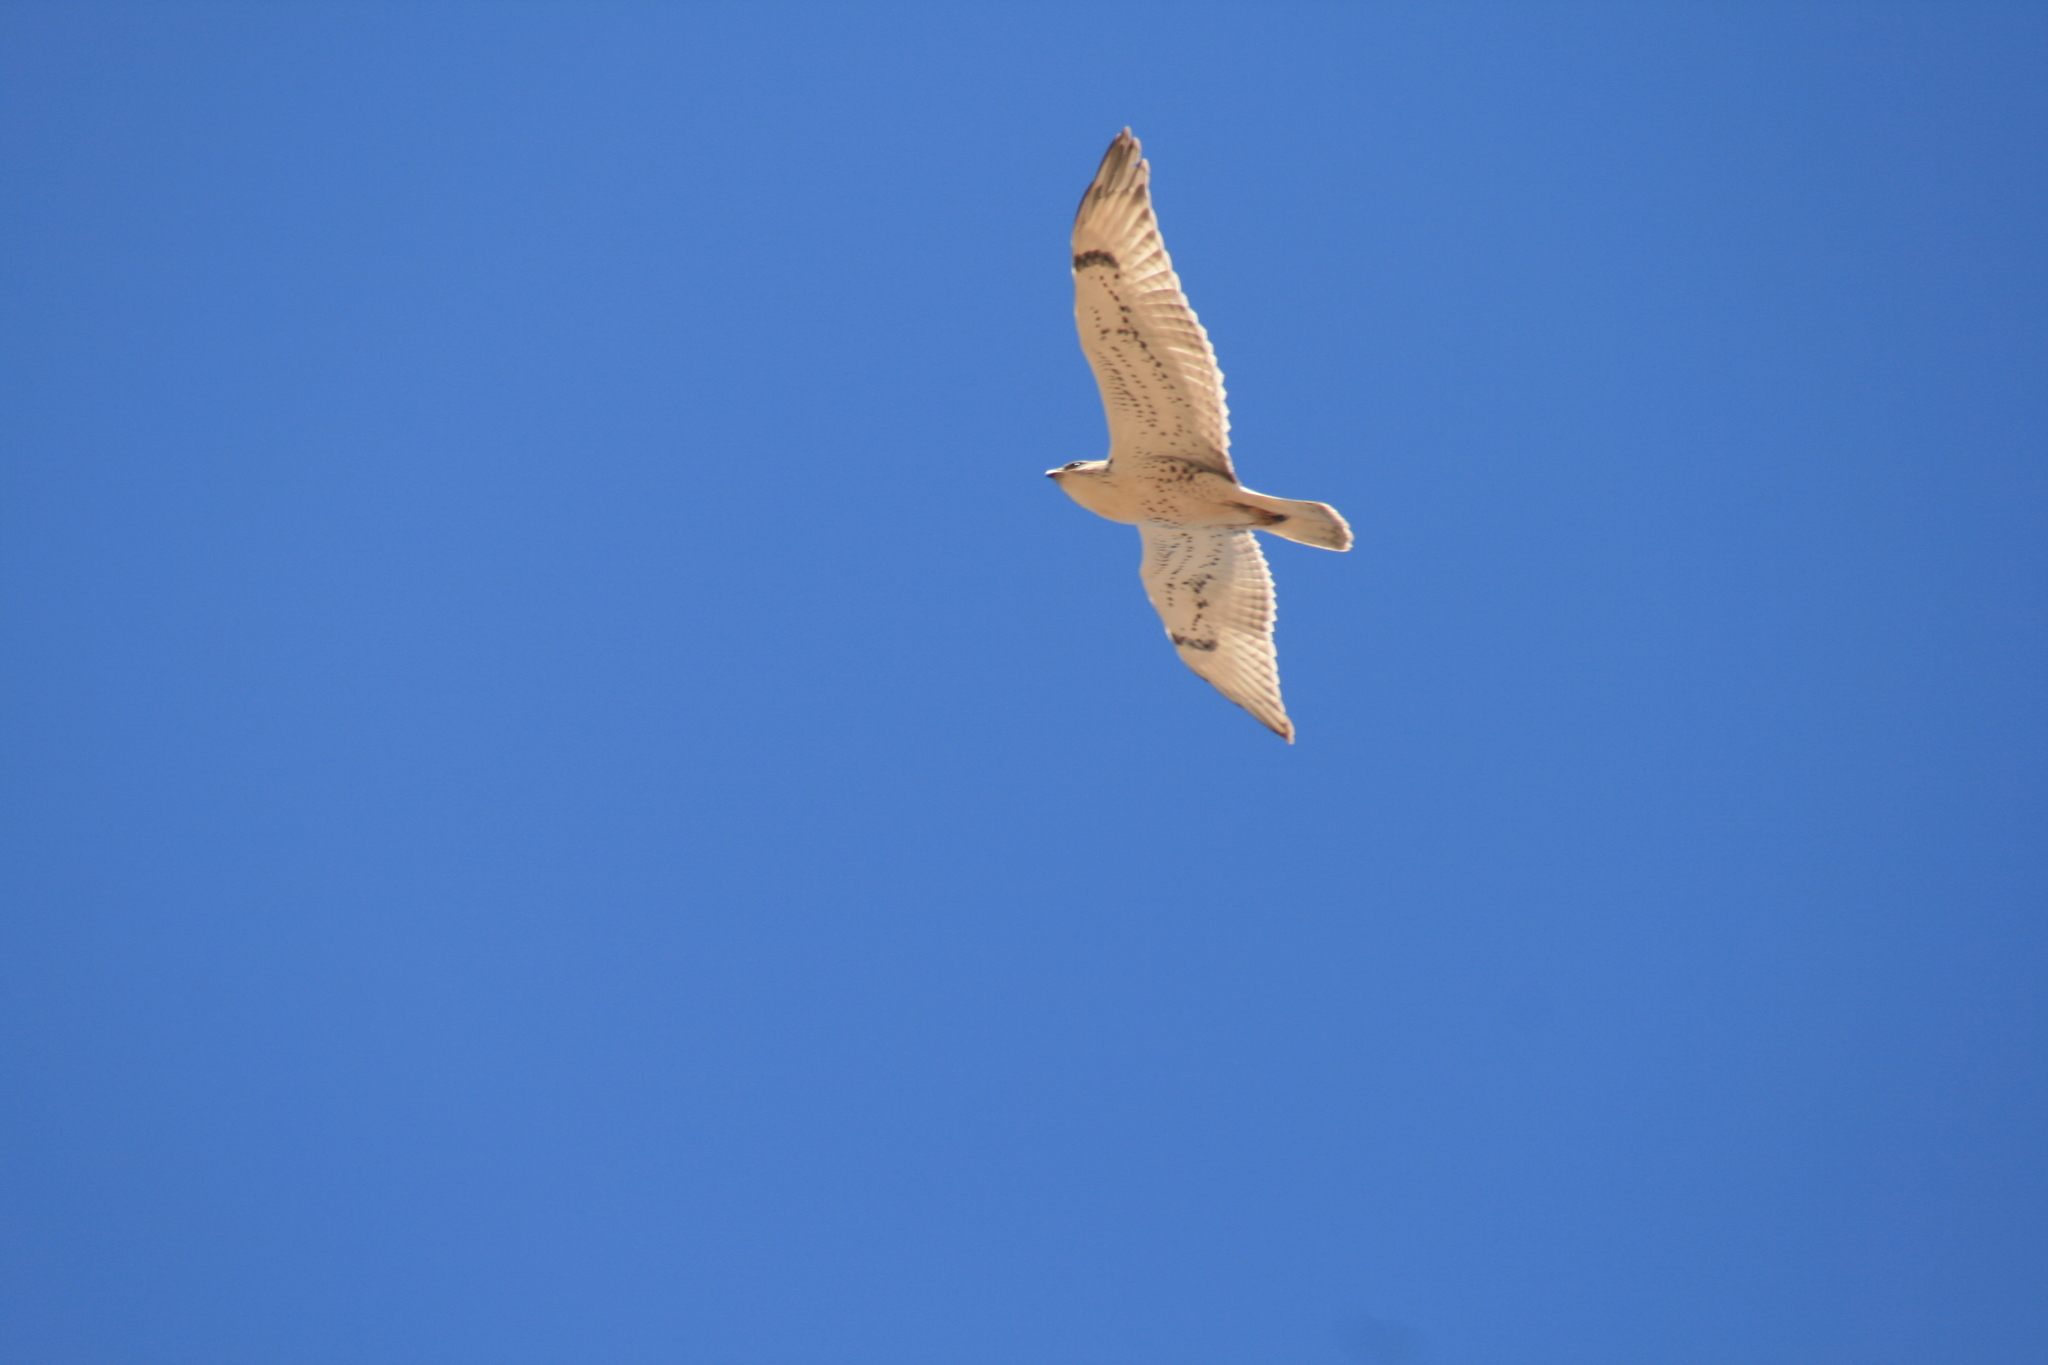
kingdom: Animalia
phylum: Chordata
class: Aves
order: Accipitriformes
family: Accipitridae
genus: Buteo
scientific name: Buteo regalis
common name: Ferruginous hawk
